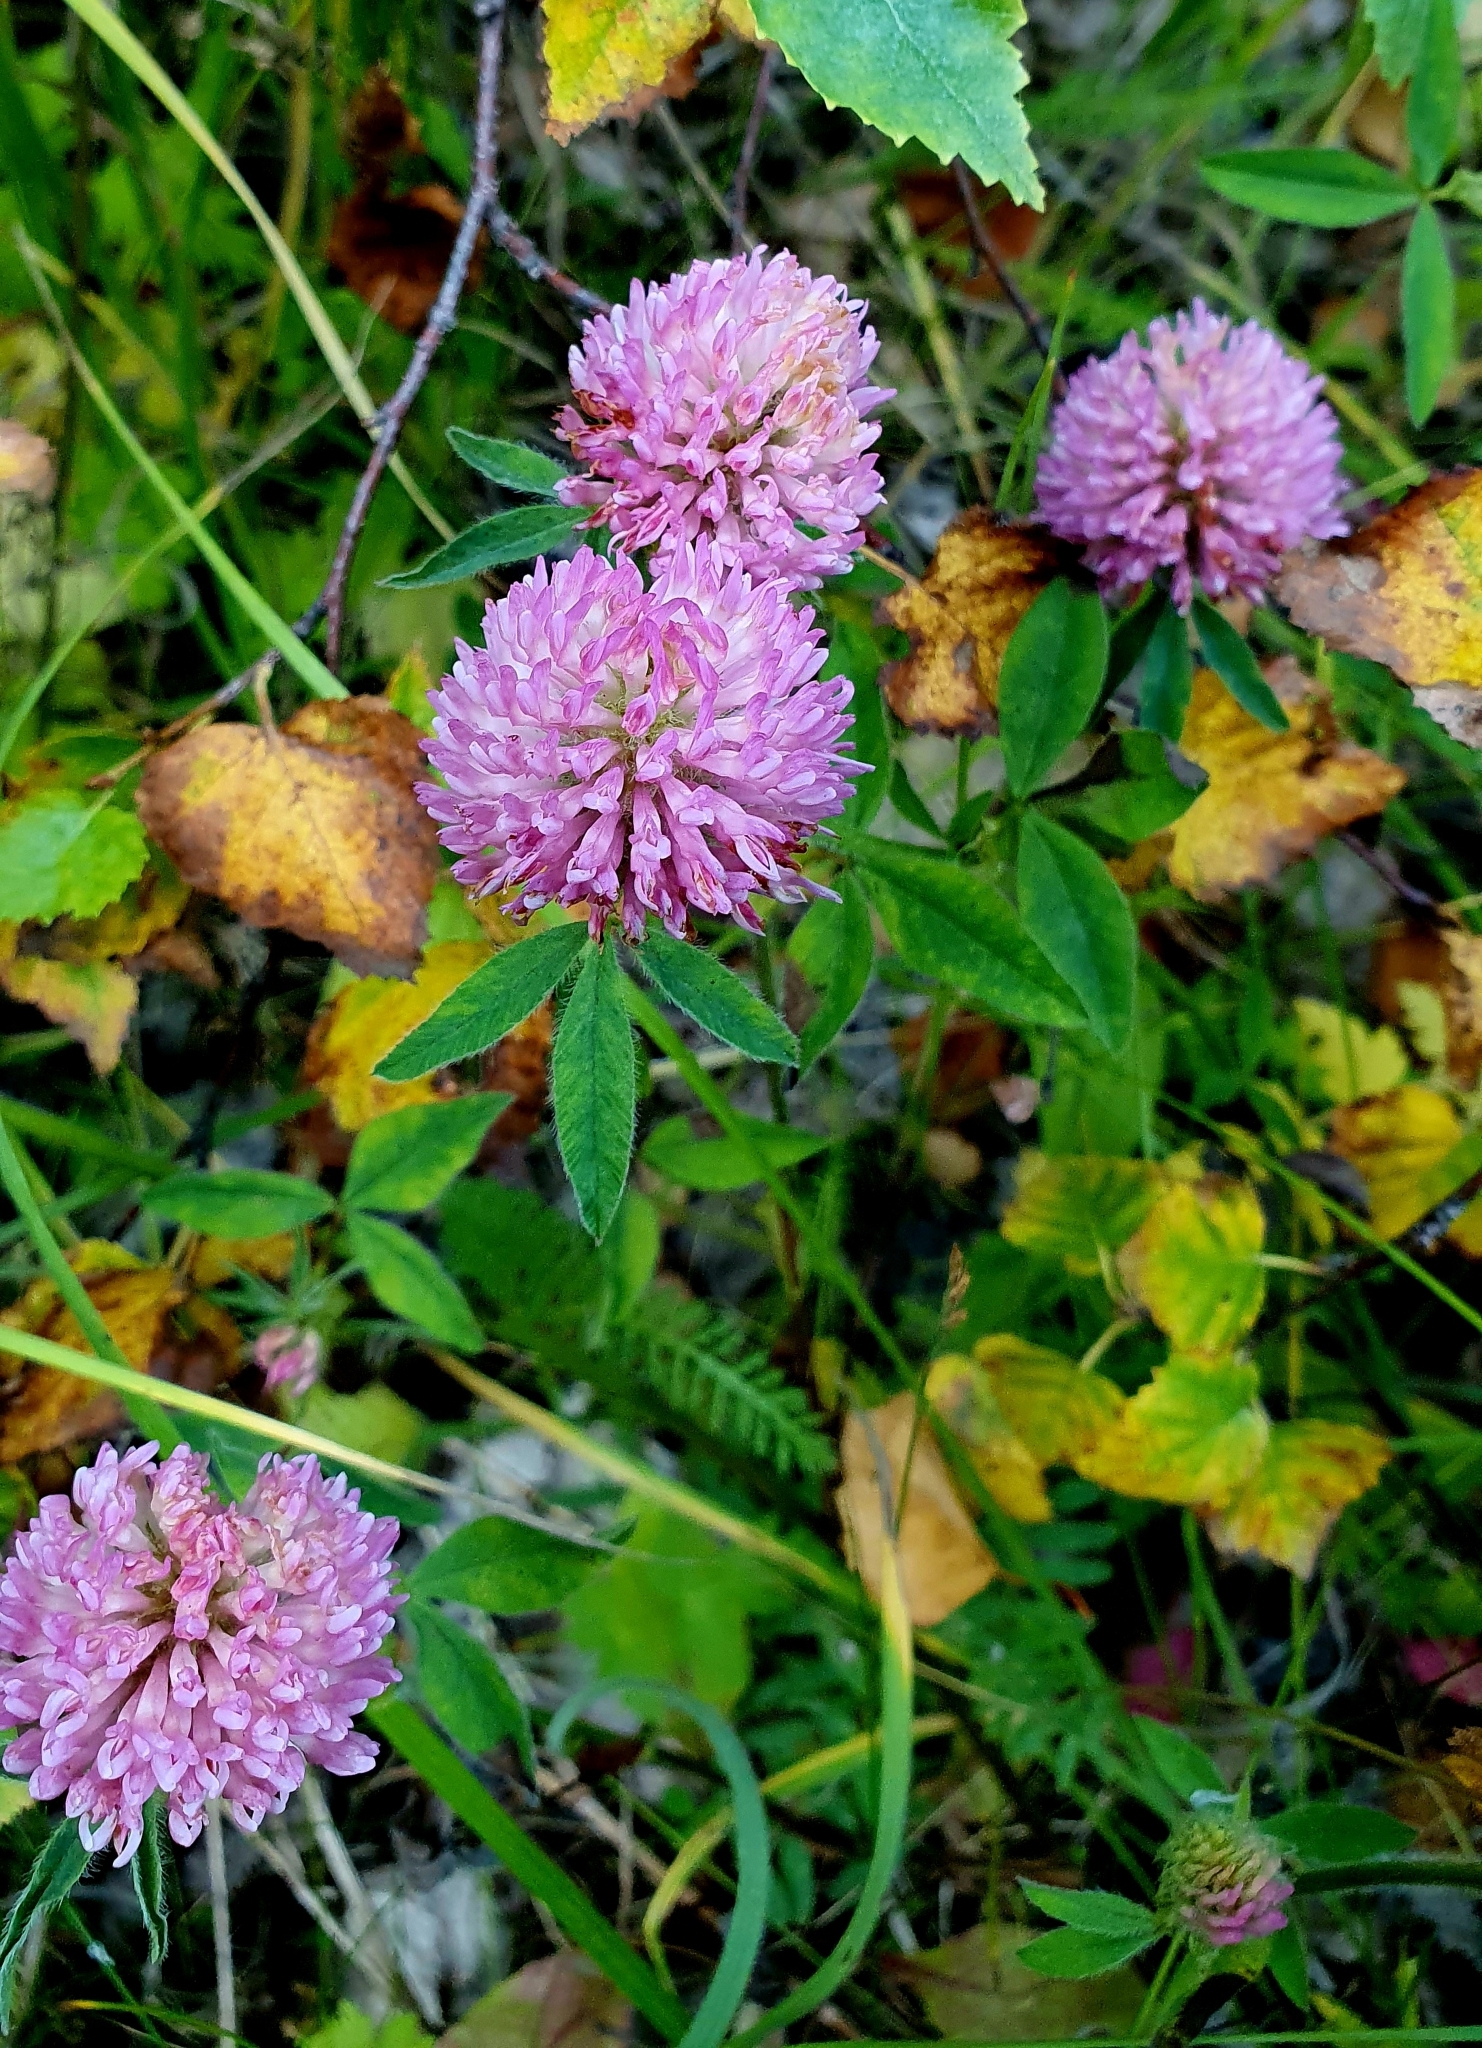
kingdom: Plantae
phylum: Tracheophyta
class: Magnoliopsida
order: Fabales
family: Fabaceae
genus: Trifolium
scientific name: Trifolium pratense
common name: Red clover
